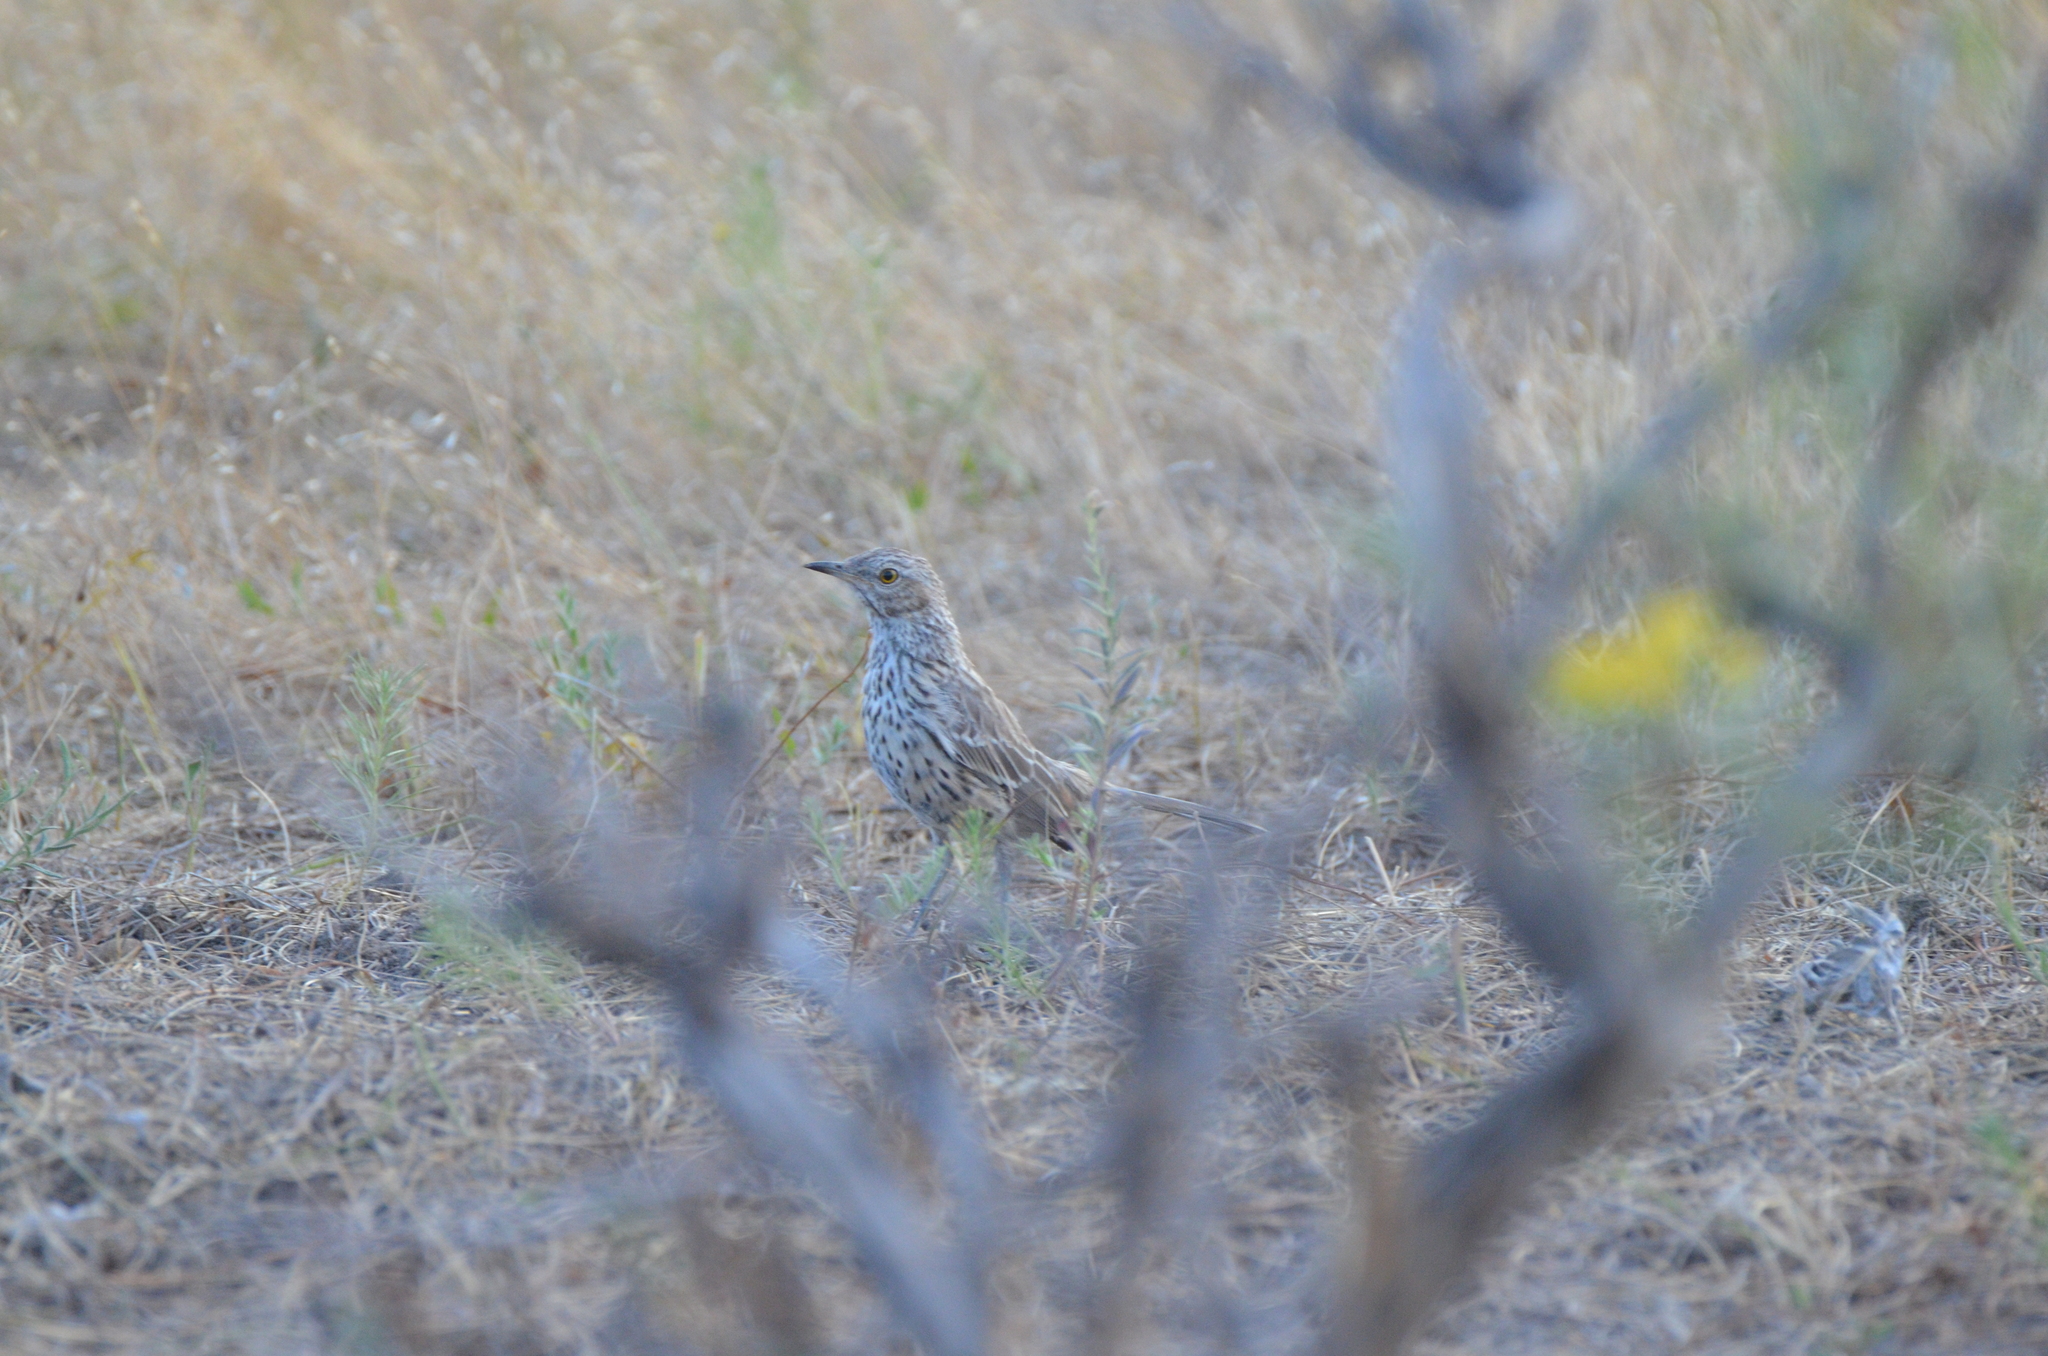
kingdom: Animalia
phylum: Chordata
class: Aves
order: Passeriformes
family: Mimidae
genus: Oreoscoptes
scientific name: Oreoscoptes montanus
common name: Sage thrasher
